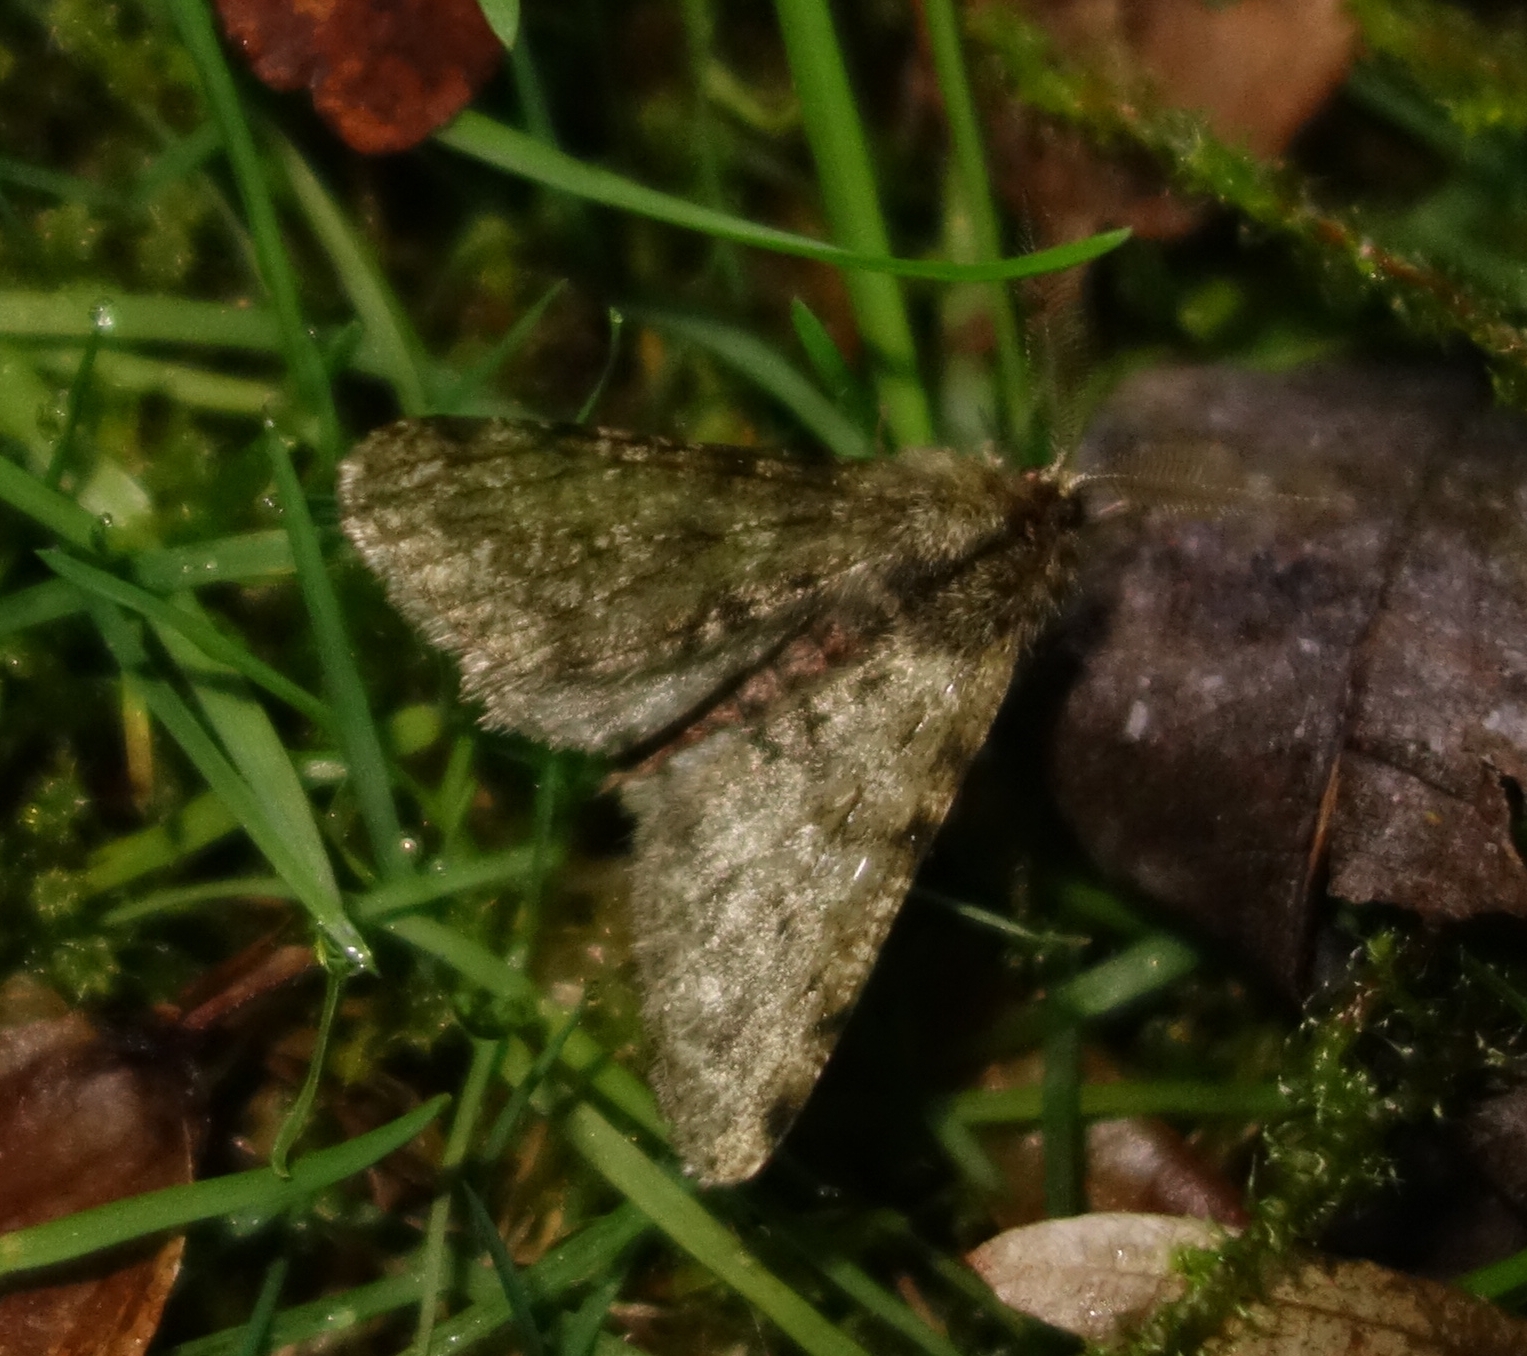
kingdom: Animalia
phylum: Arthropoda
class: Insecta
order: Lepidoptera
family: Geometridae
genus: Phigalia
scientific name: Phigalia pilosaria
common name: Pale brindled beauty
